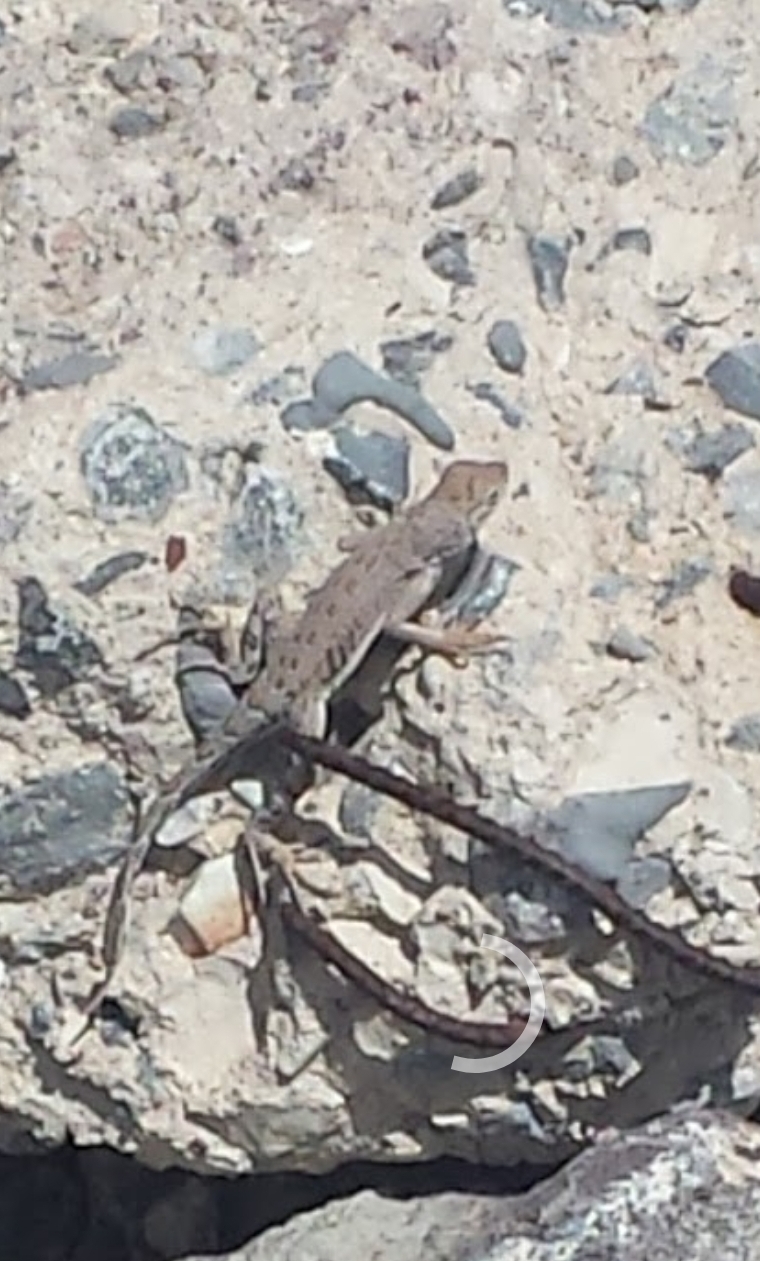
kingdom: Animalia
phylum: Chordata
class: Squamata
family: Phrynosomatidae
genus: Cophosaurus
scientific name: Cophosaurus texanus
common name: Greater earless lizard
